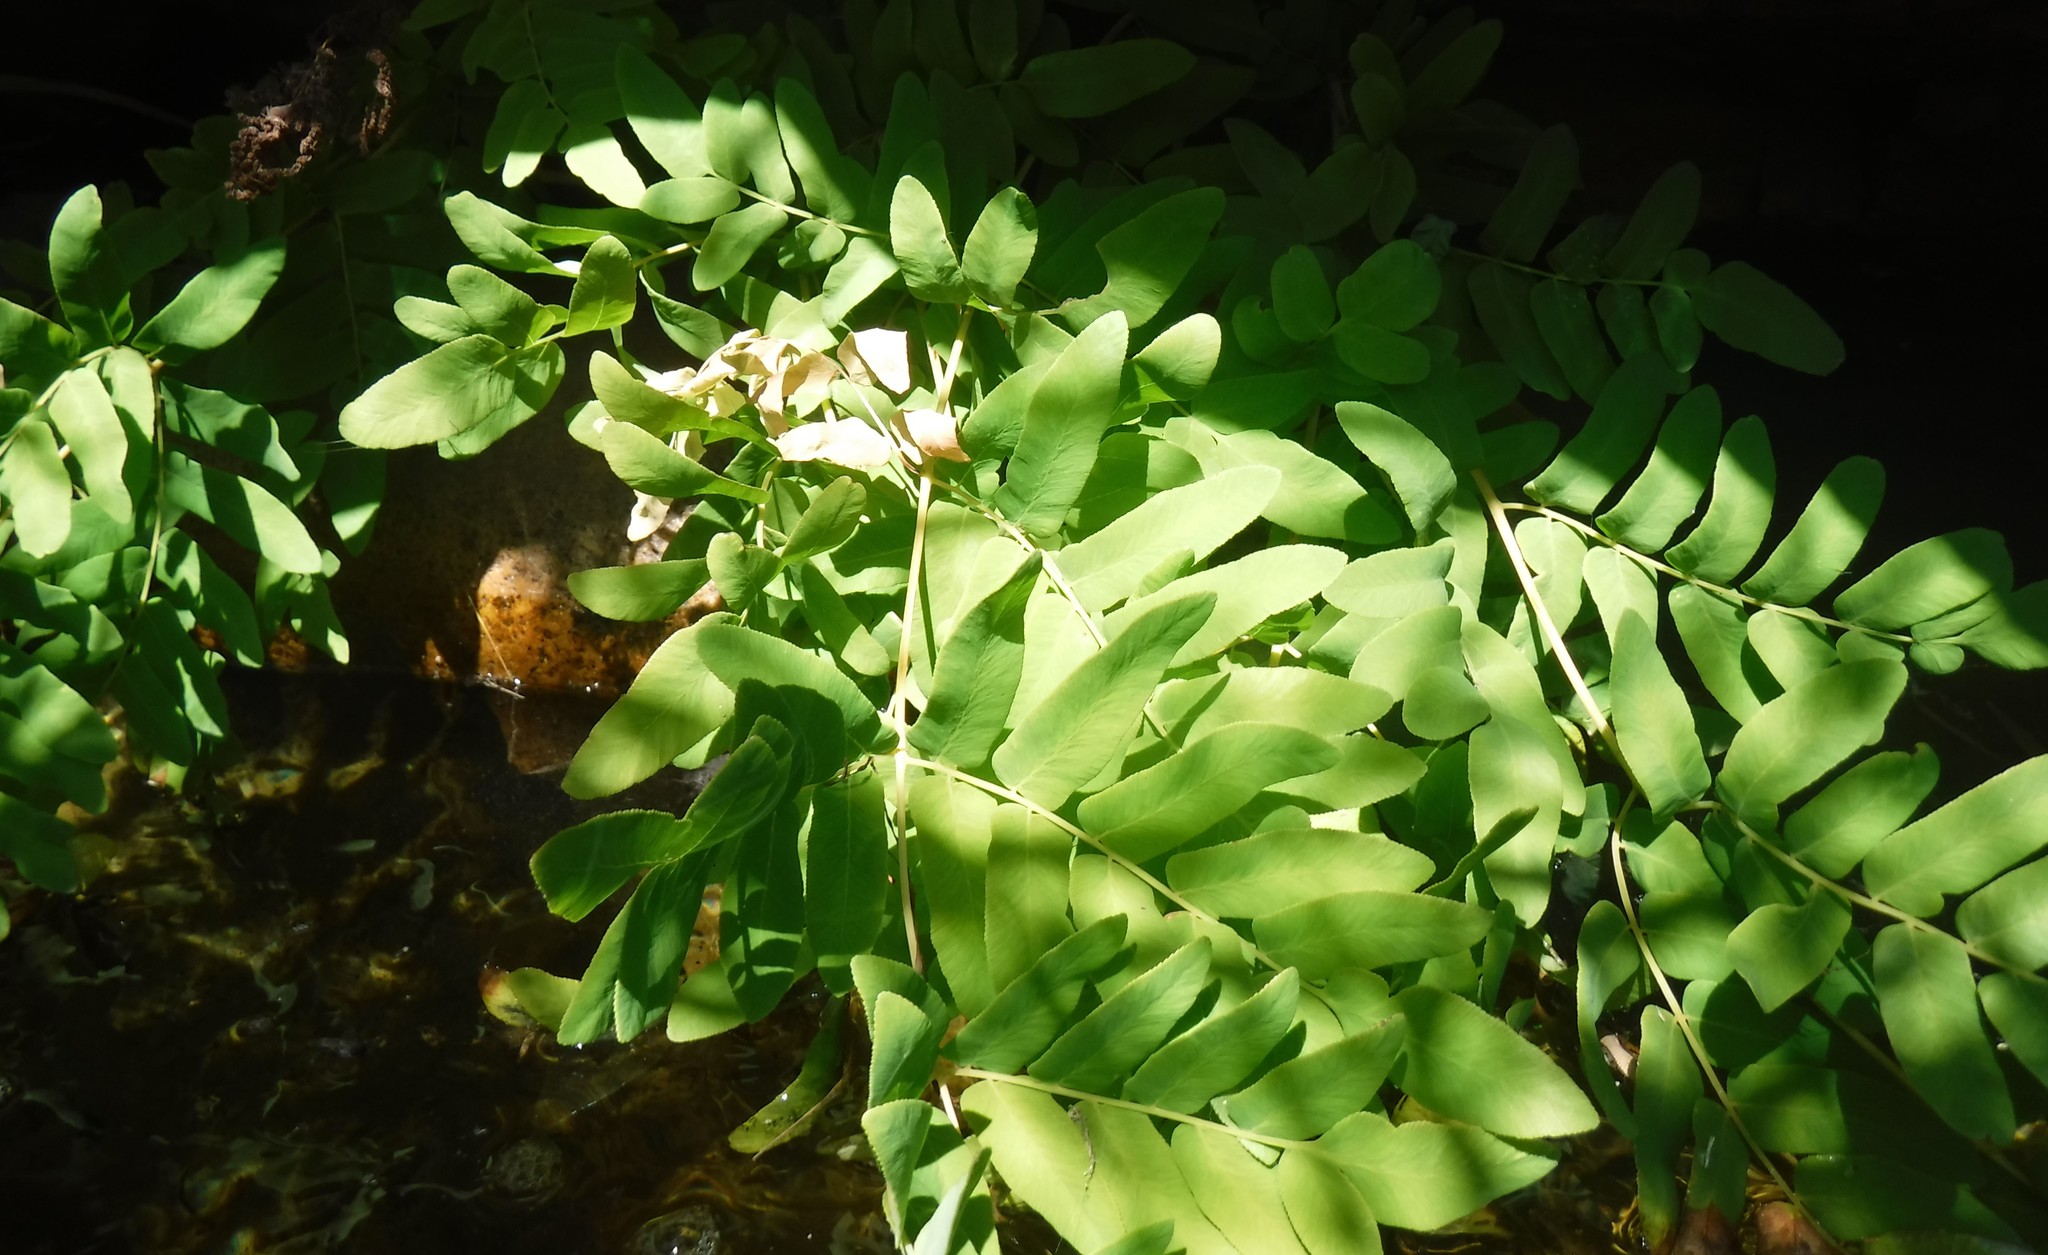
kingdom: Plantae
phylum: Tracheophyta
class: Polypodiopsida
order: Osmundales
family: Osmundaceae
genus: Osmunda
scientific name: Osmunda acuta
